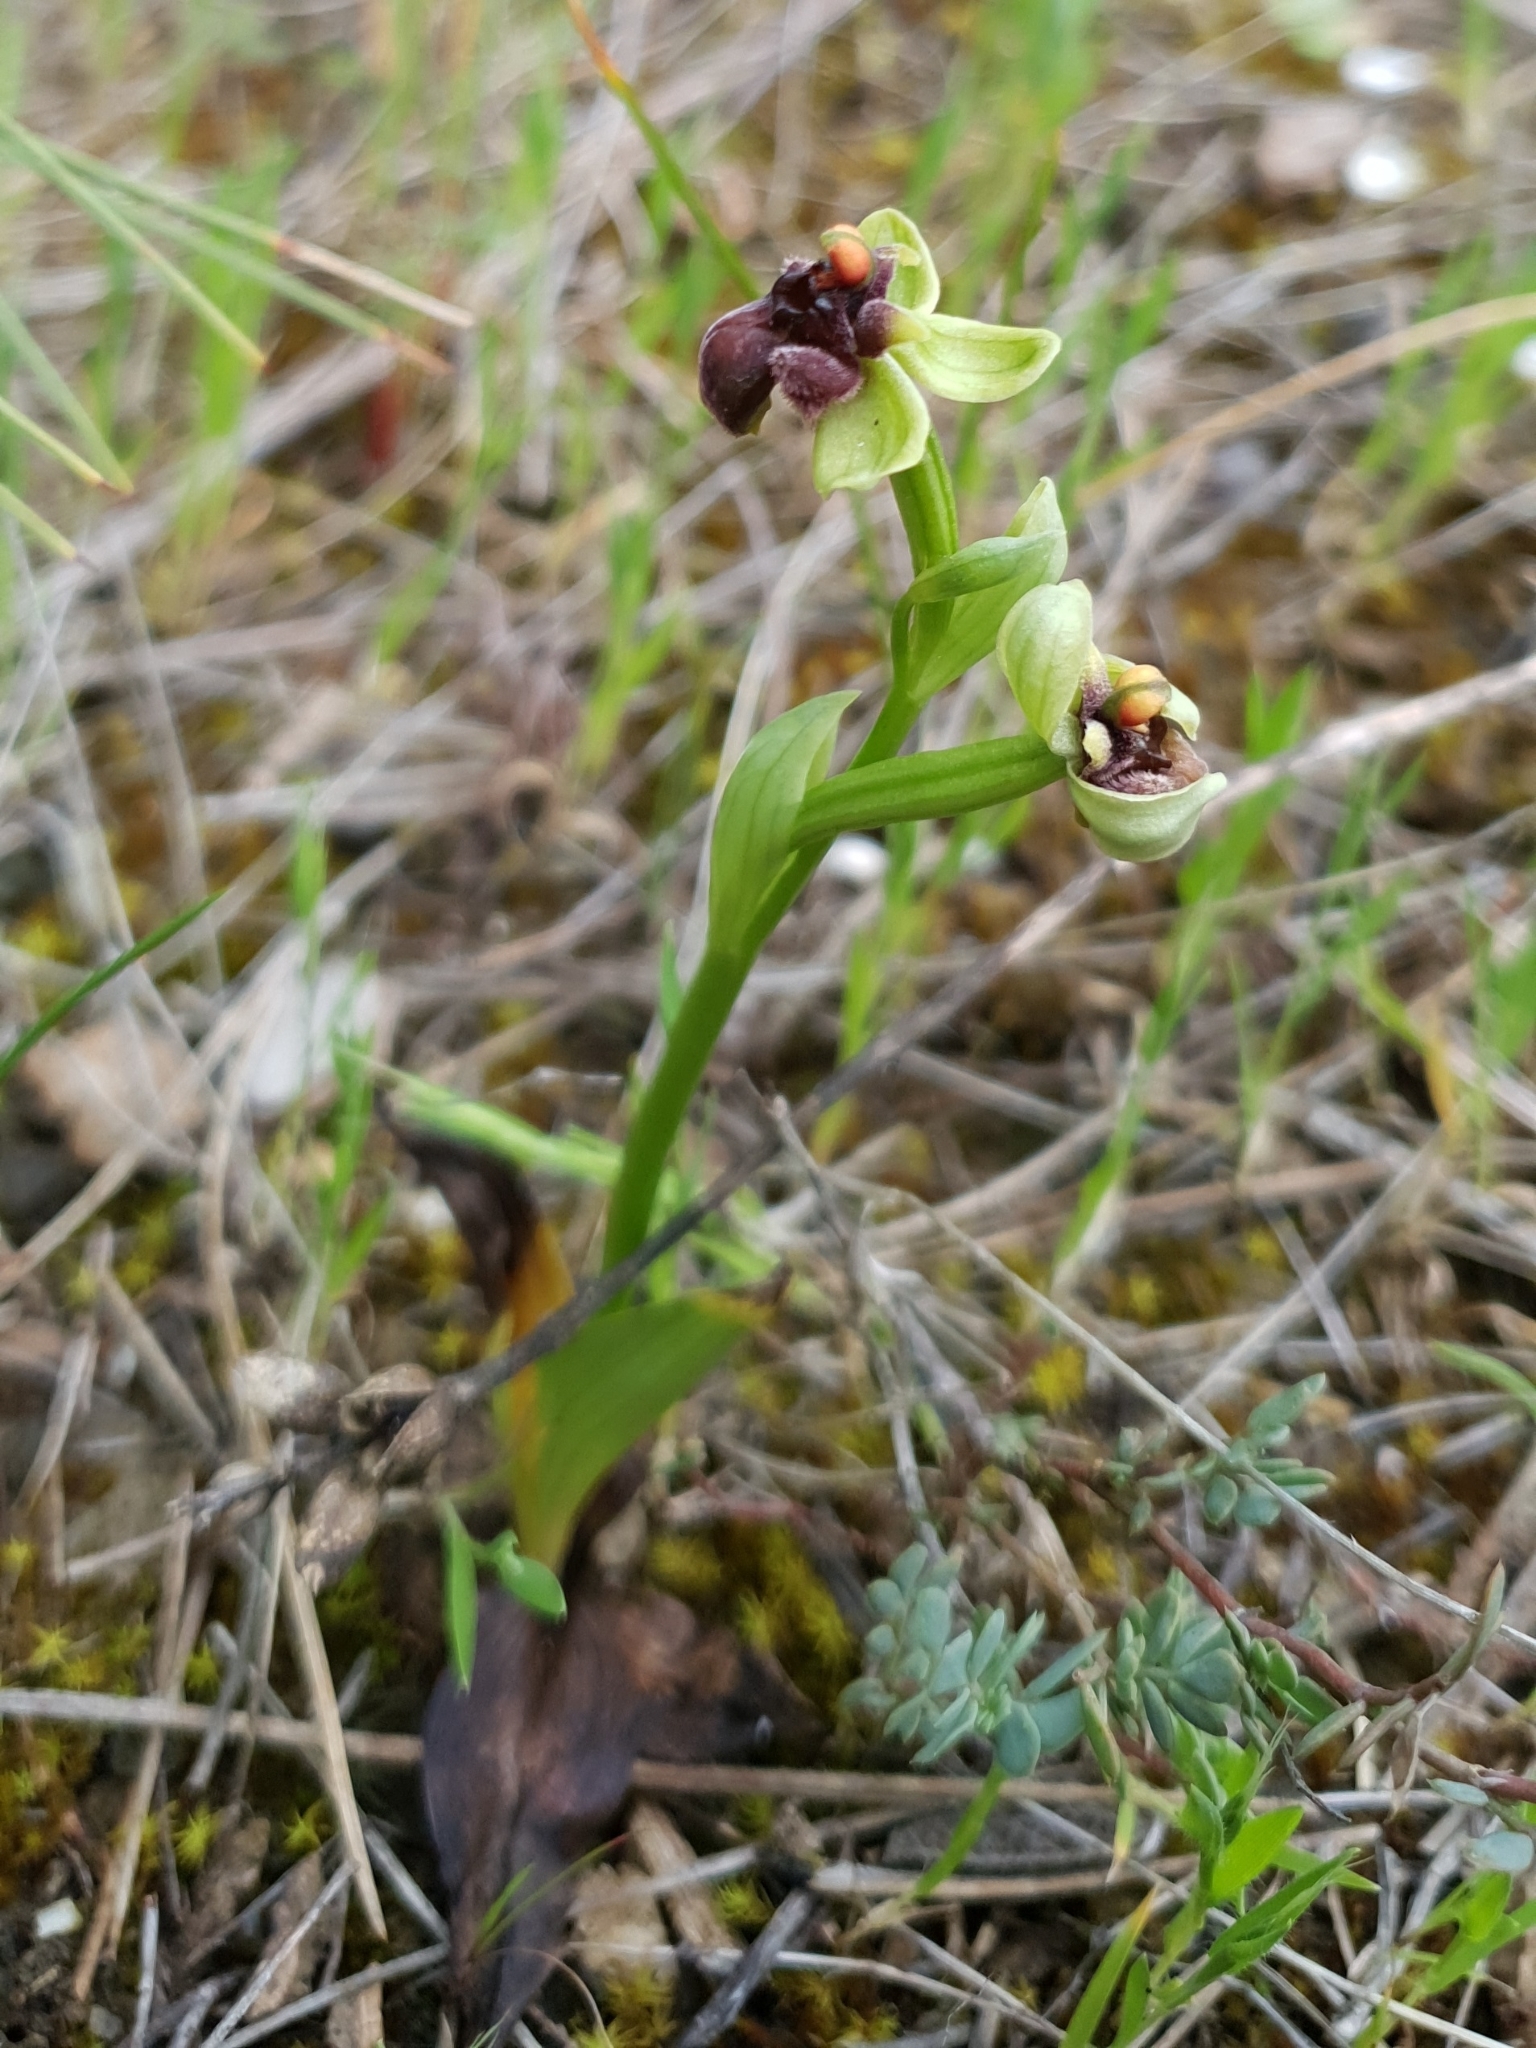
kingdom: Plantae
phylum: Tracheophyta
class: Liliopsida
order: Asparagales
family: Orchidaceae
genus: Ophrys
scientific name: Ophrys bombyliflora
